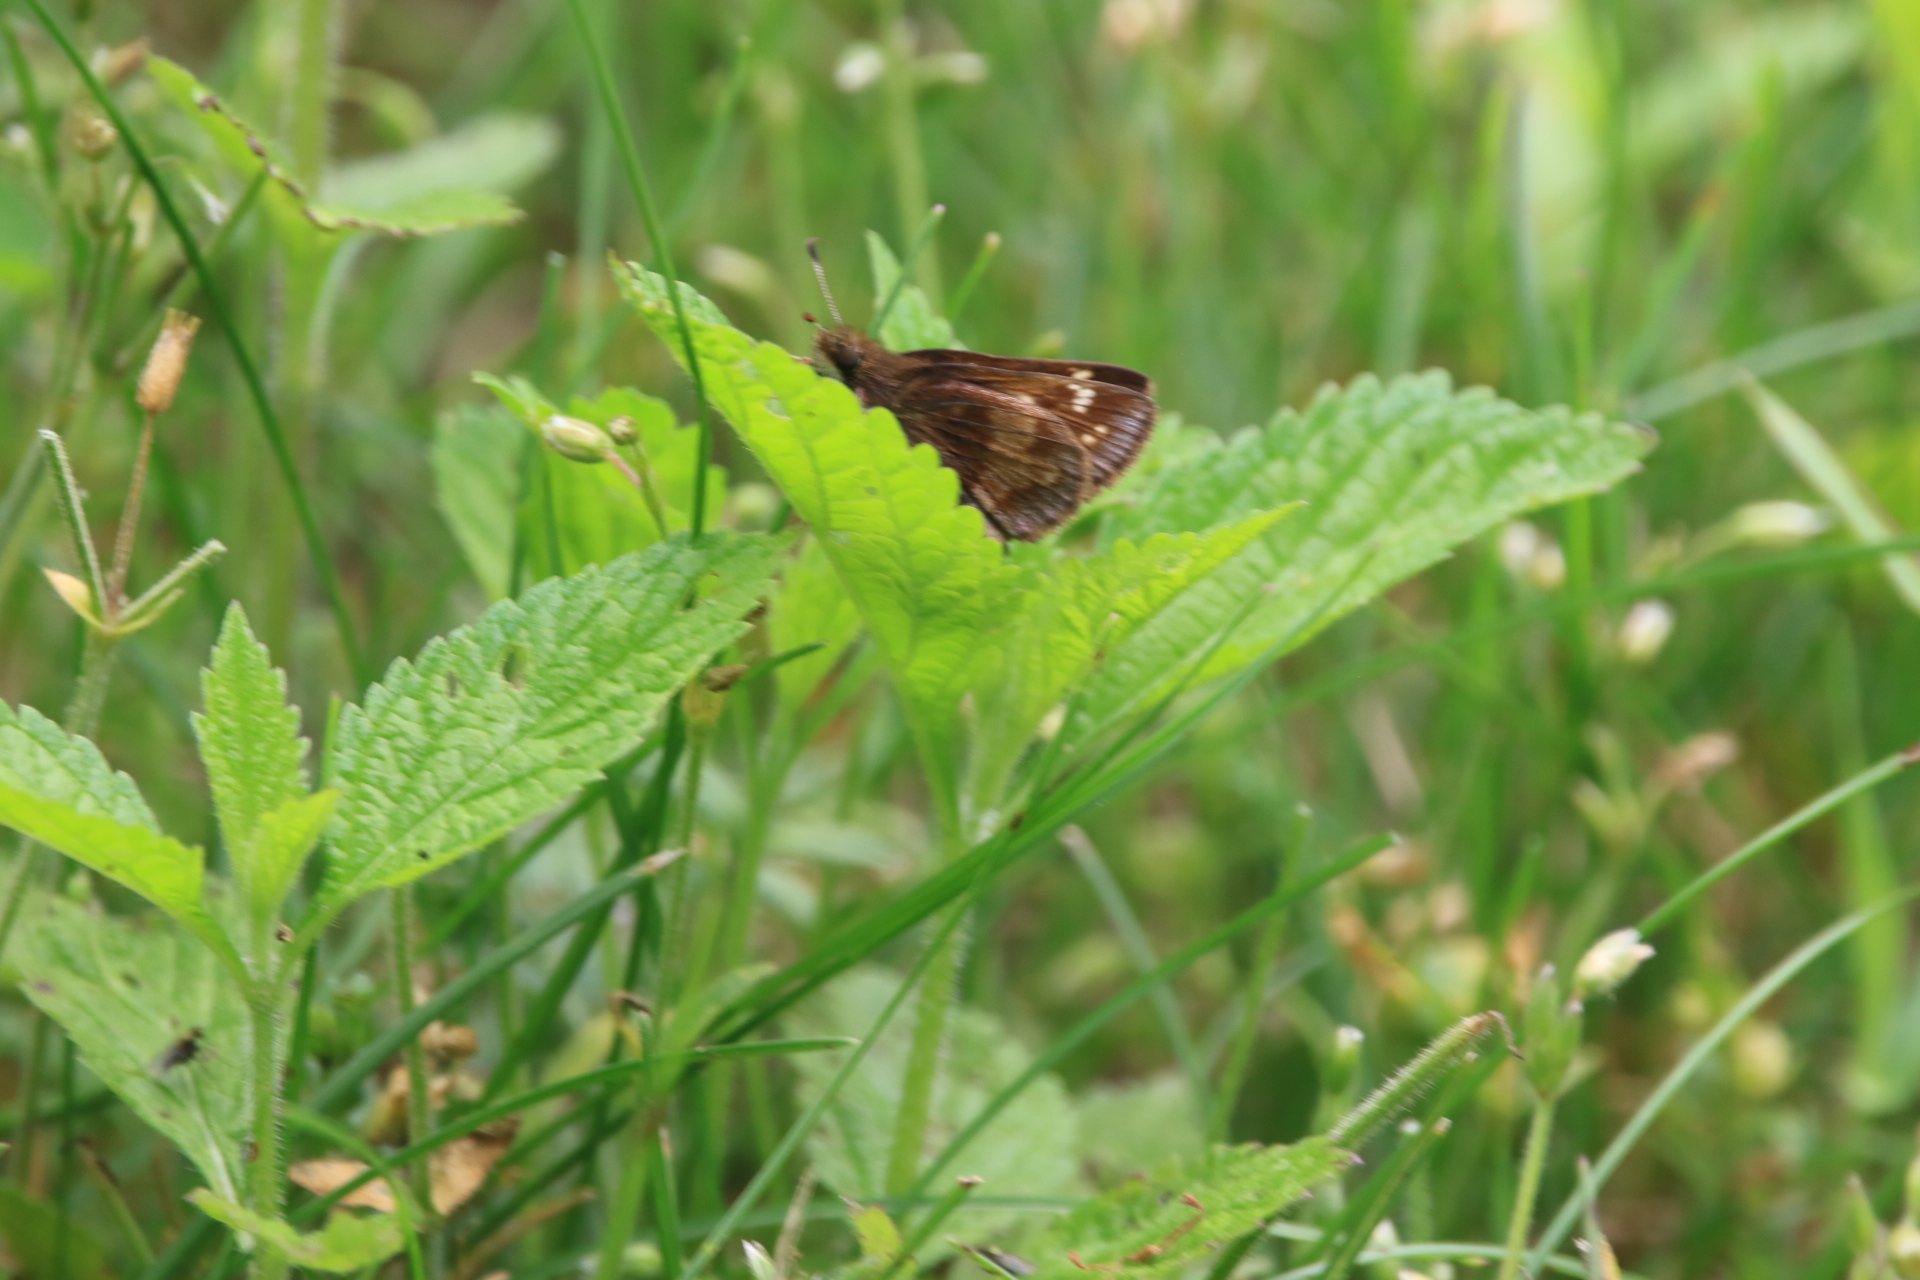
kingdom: Animalia
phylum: Arthropoda
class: Insecta
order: Lepidoptera
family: Hesperiidae
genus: Lon
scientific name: Lon hobomok
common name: Hobomok skipper
